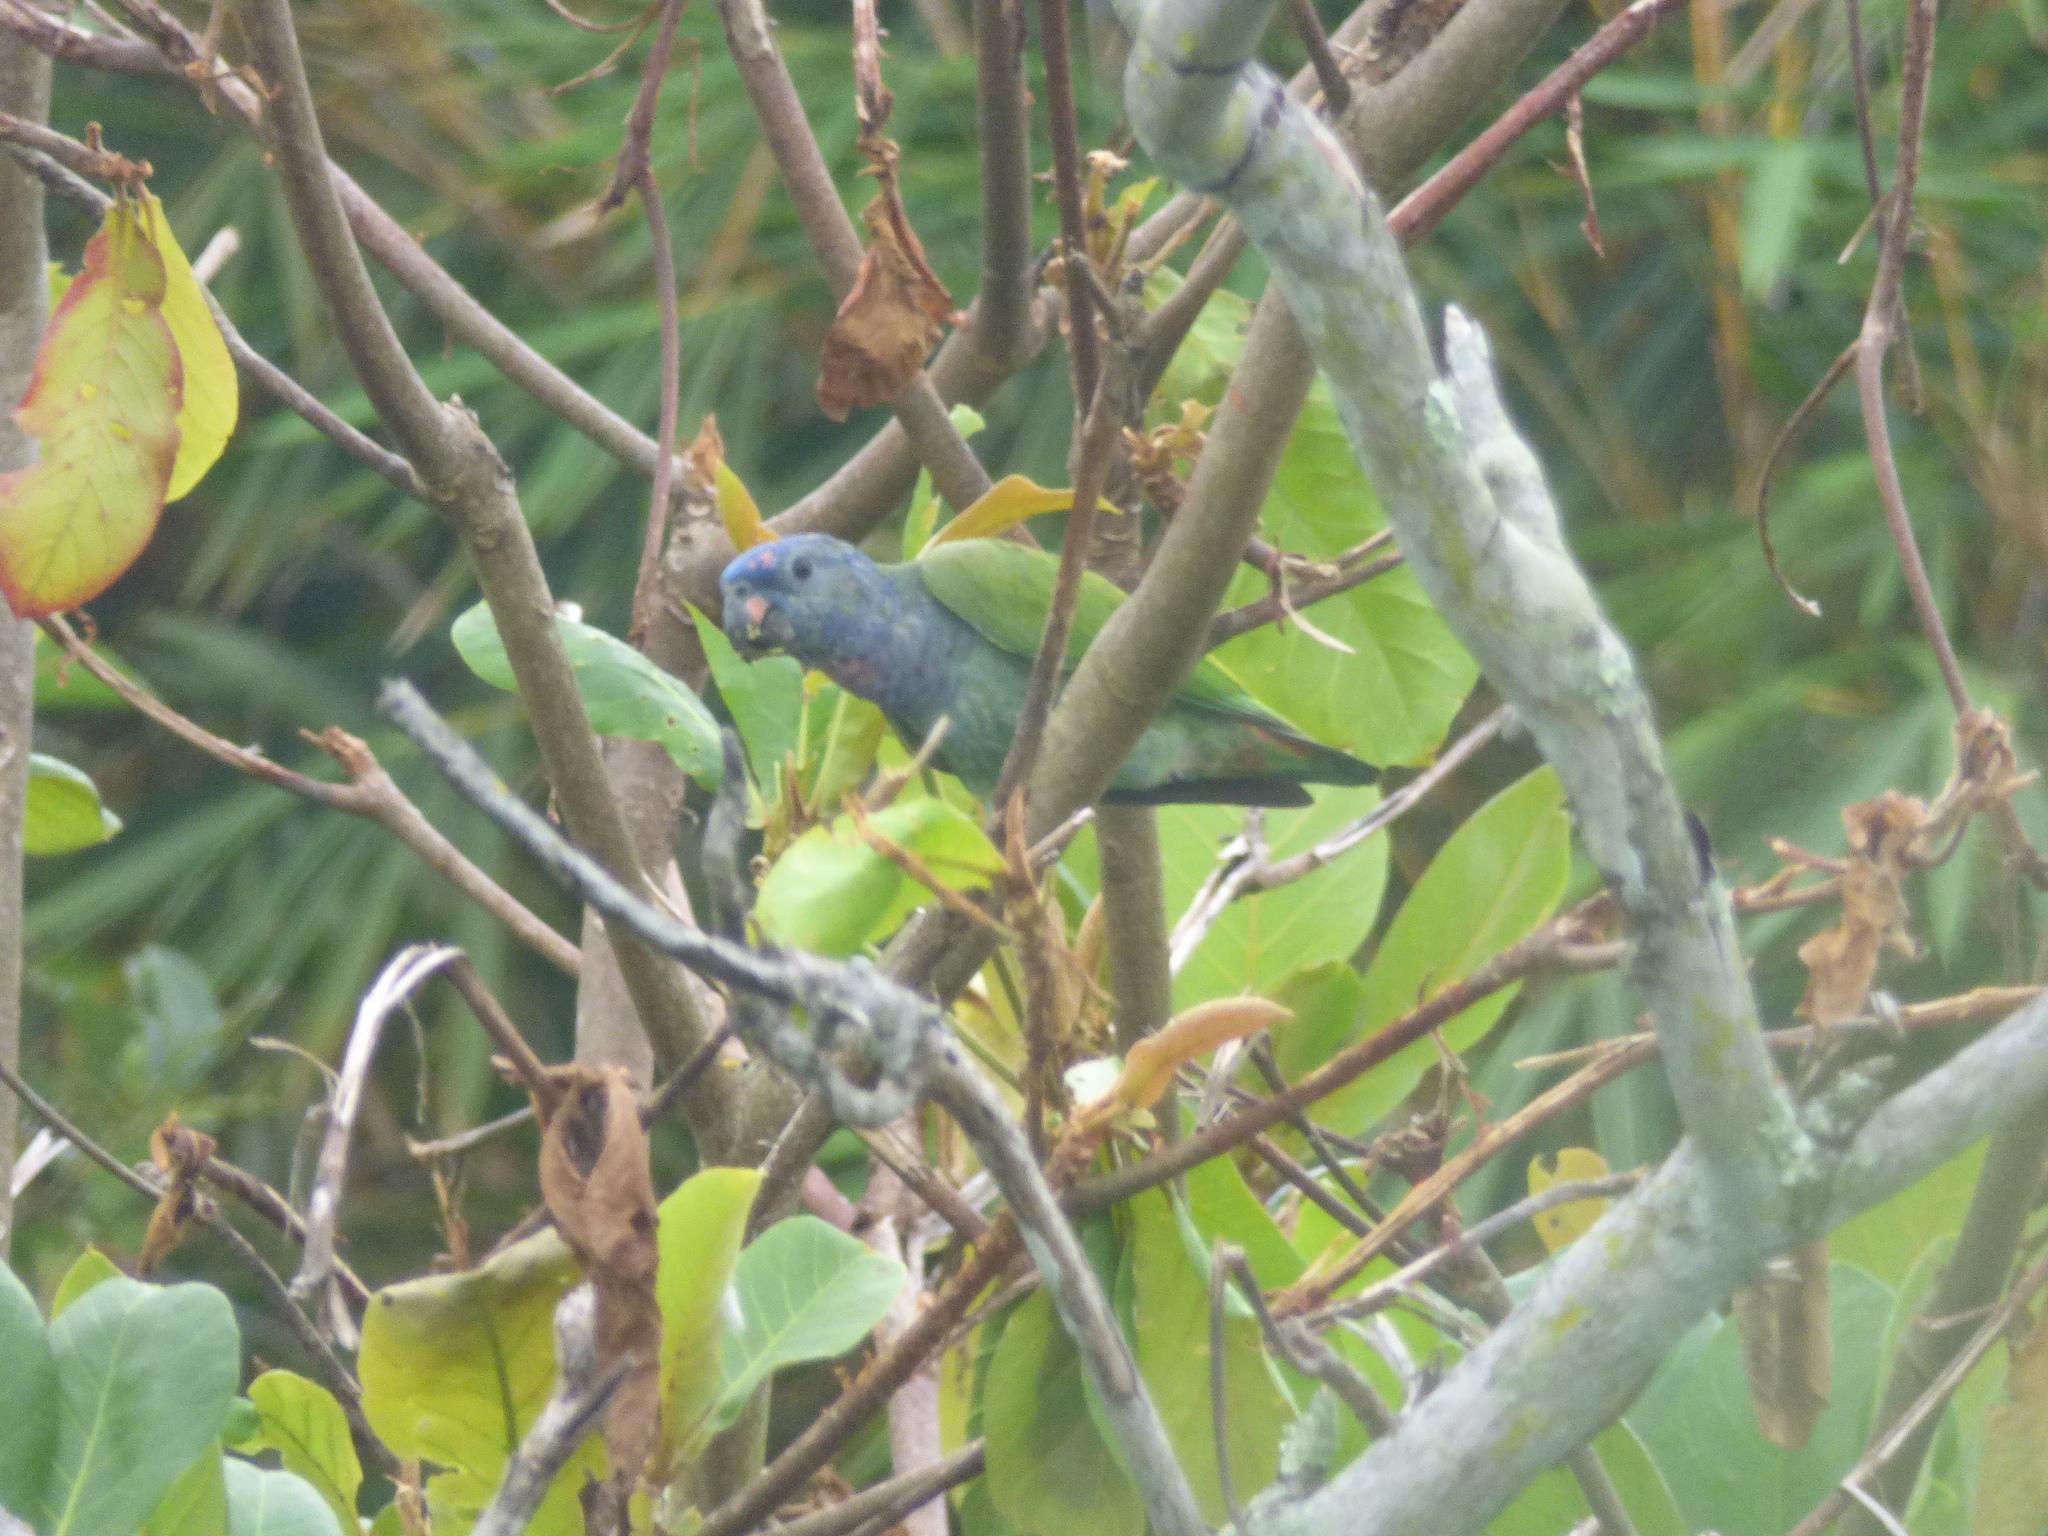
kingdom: Animalia
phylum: Chordata
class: Aves
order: Psittaciformes
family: Psittacidae
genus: Pionus
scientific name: Pionus menstruus
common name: Blue-headed parrot
